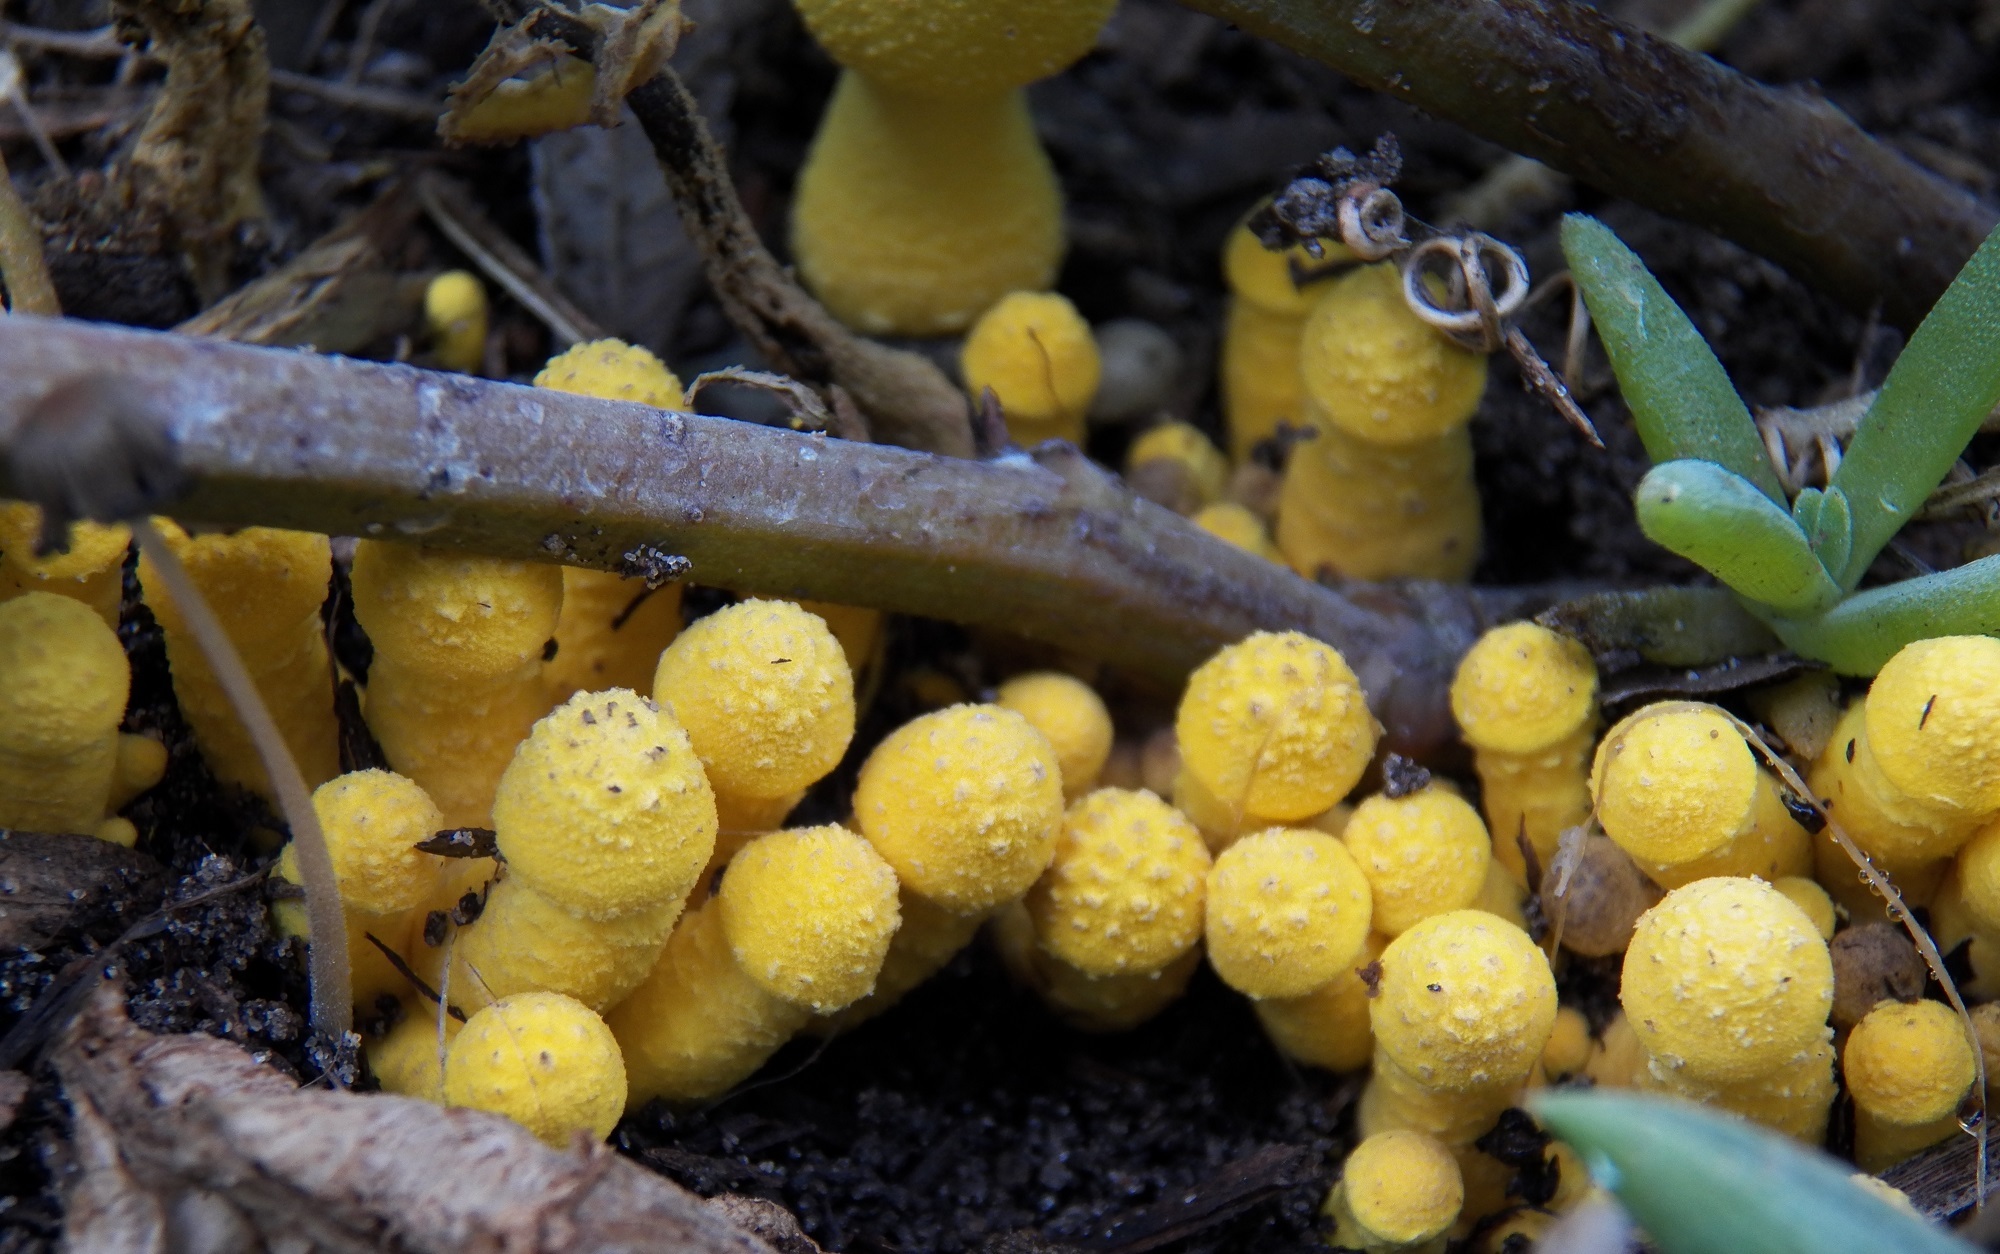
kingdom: Fungi
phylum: Basidiomycota
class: Agaricomycetes
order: Agaricales
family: Agaricaceae
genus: Leucocoprinus
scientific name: Leucocoprinus birnbaumii
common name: Plantpot dapperling
